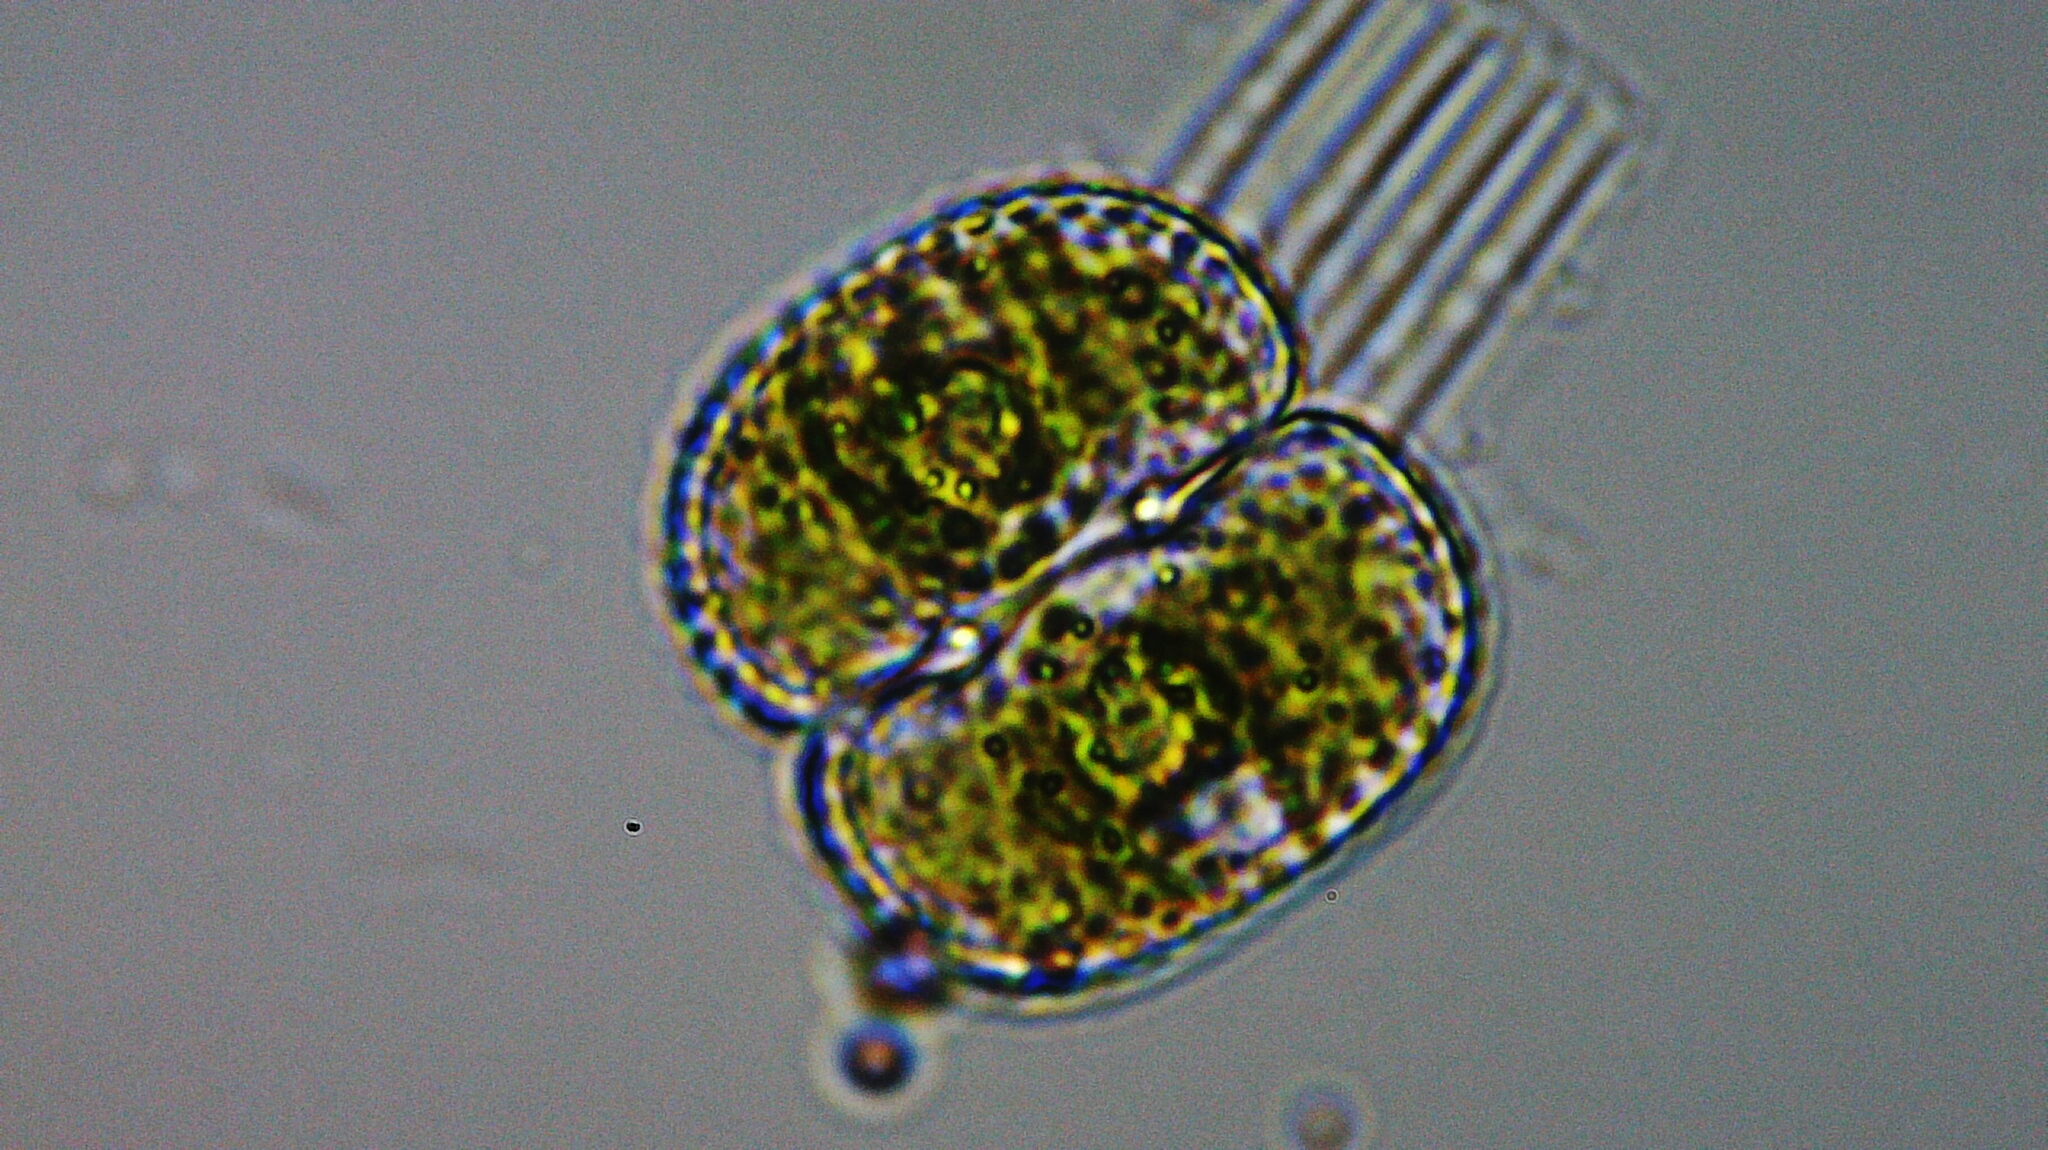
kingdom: Plantae
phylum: Charophyta
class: Zygnematophyceae
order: Zygnematales
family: Desmidiaceae
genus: Cosmarium
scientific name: Cosmarium
